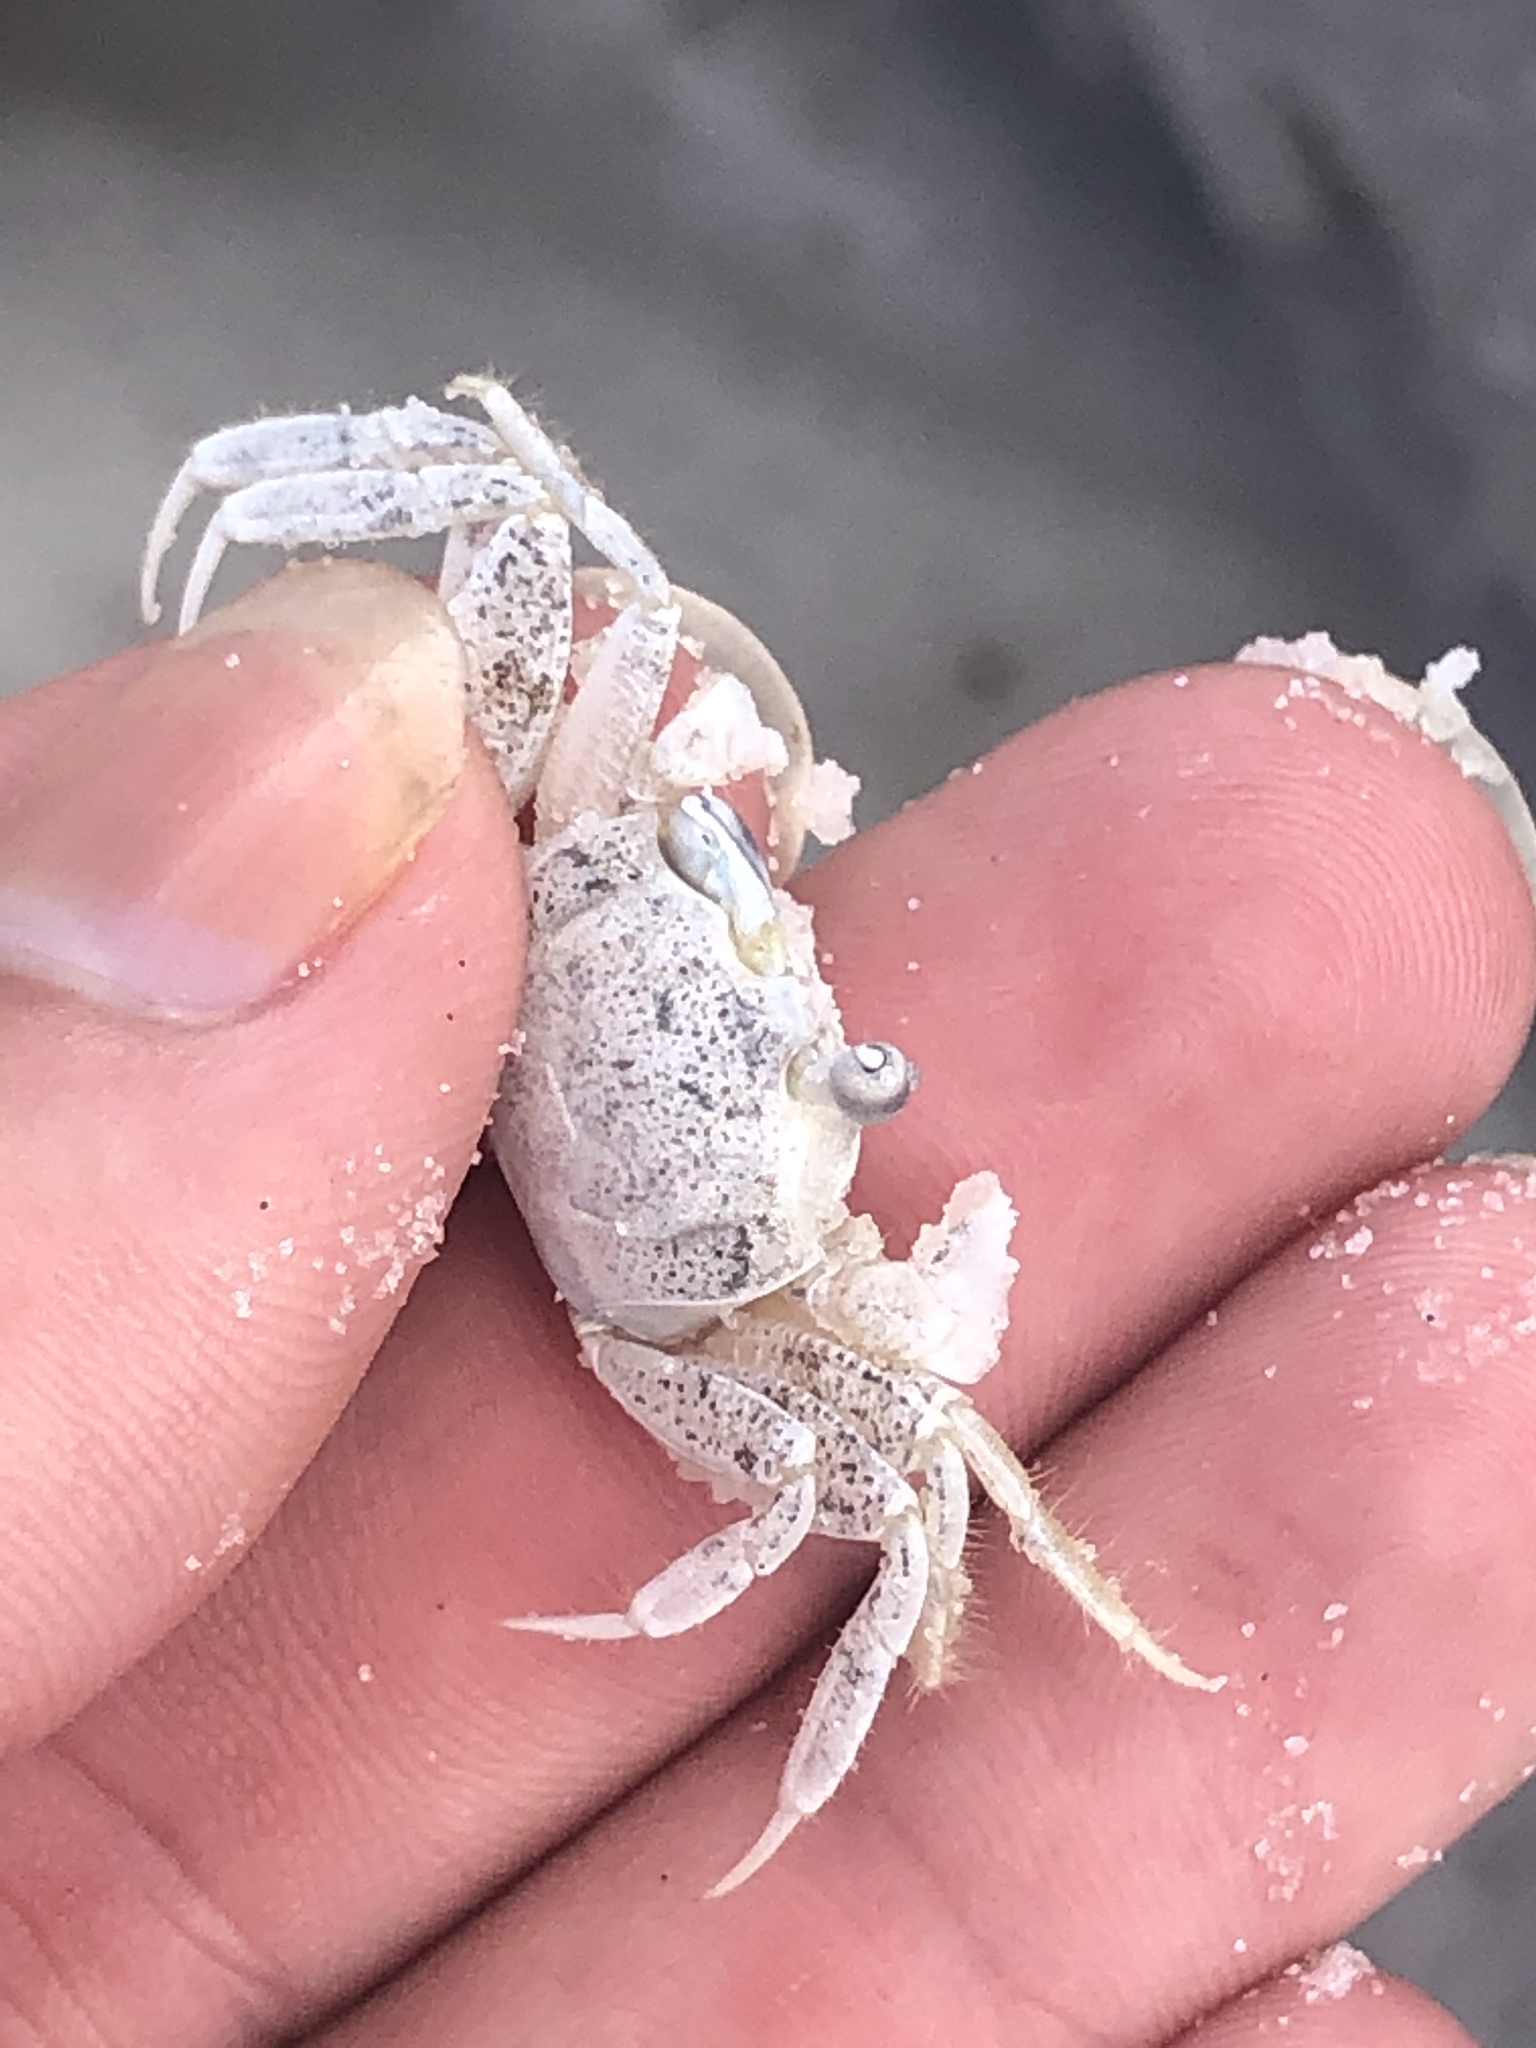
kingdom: Animalia
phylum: Arthropoda
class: Malacostraca
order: Decapoda
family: Ocypodidae
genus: Ocypode
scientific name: Ocypode quadrata
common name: Ghost crab
